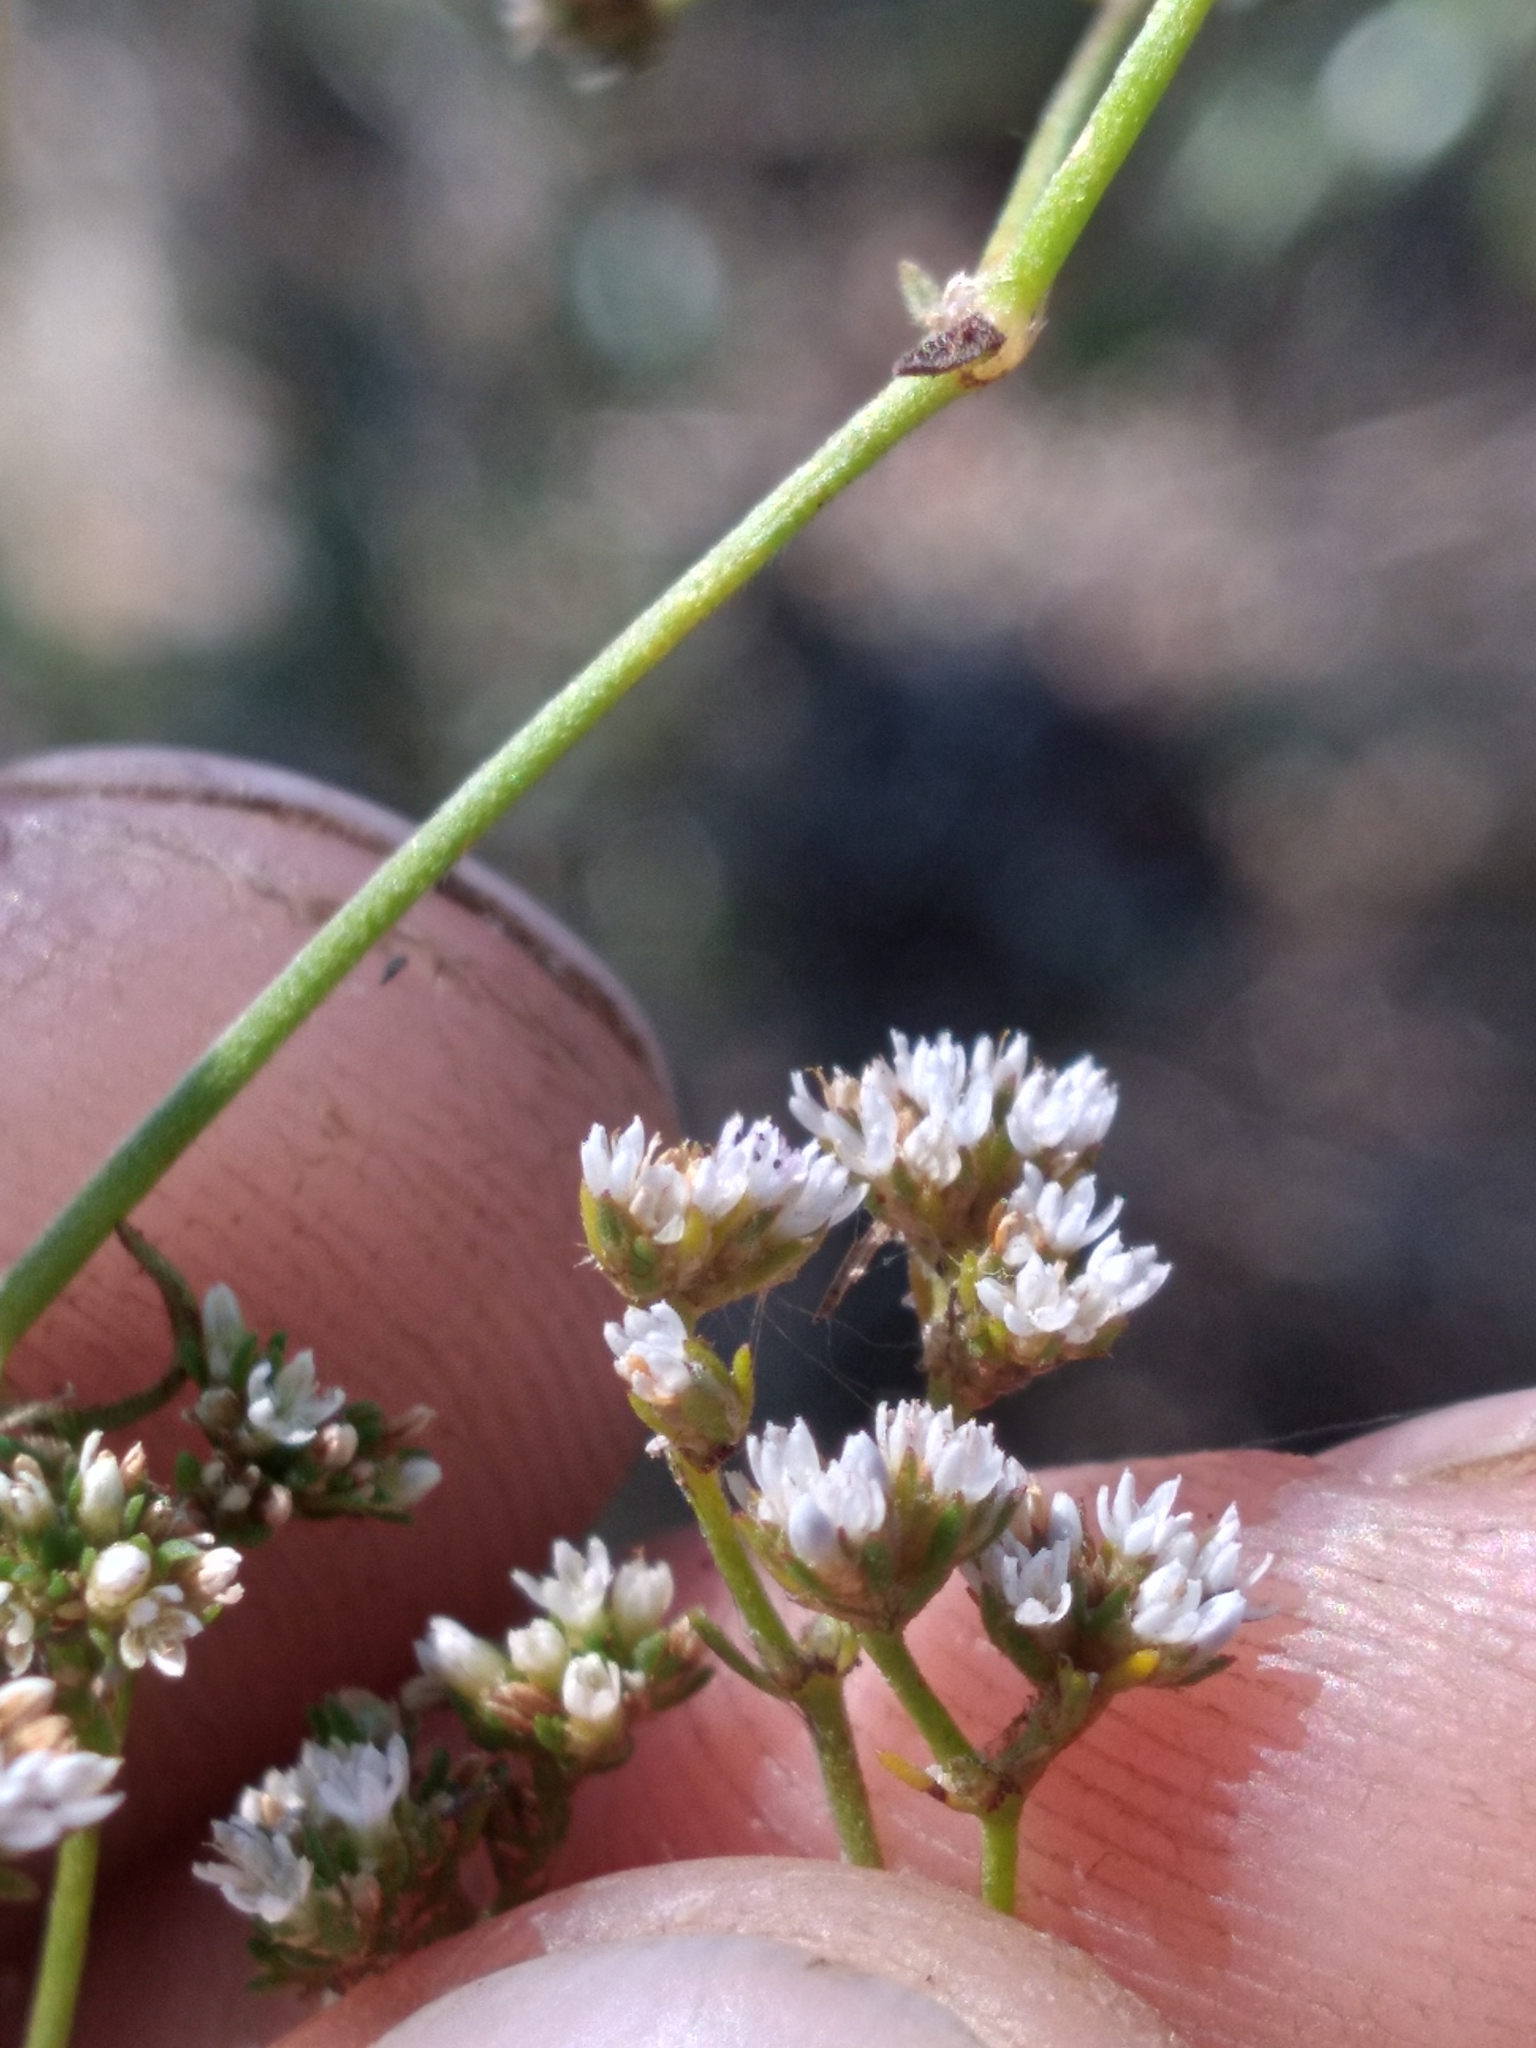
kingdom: Plantae
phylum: Tracheophyta
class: Magnoliopsida
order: Caryophyllales
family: Caryophyllaceae
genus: Paronychia
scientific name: Paronychia patula
